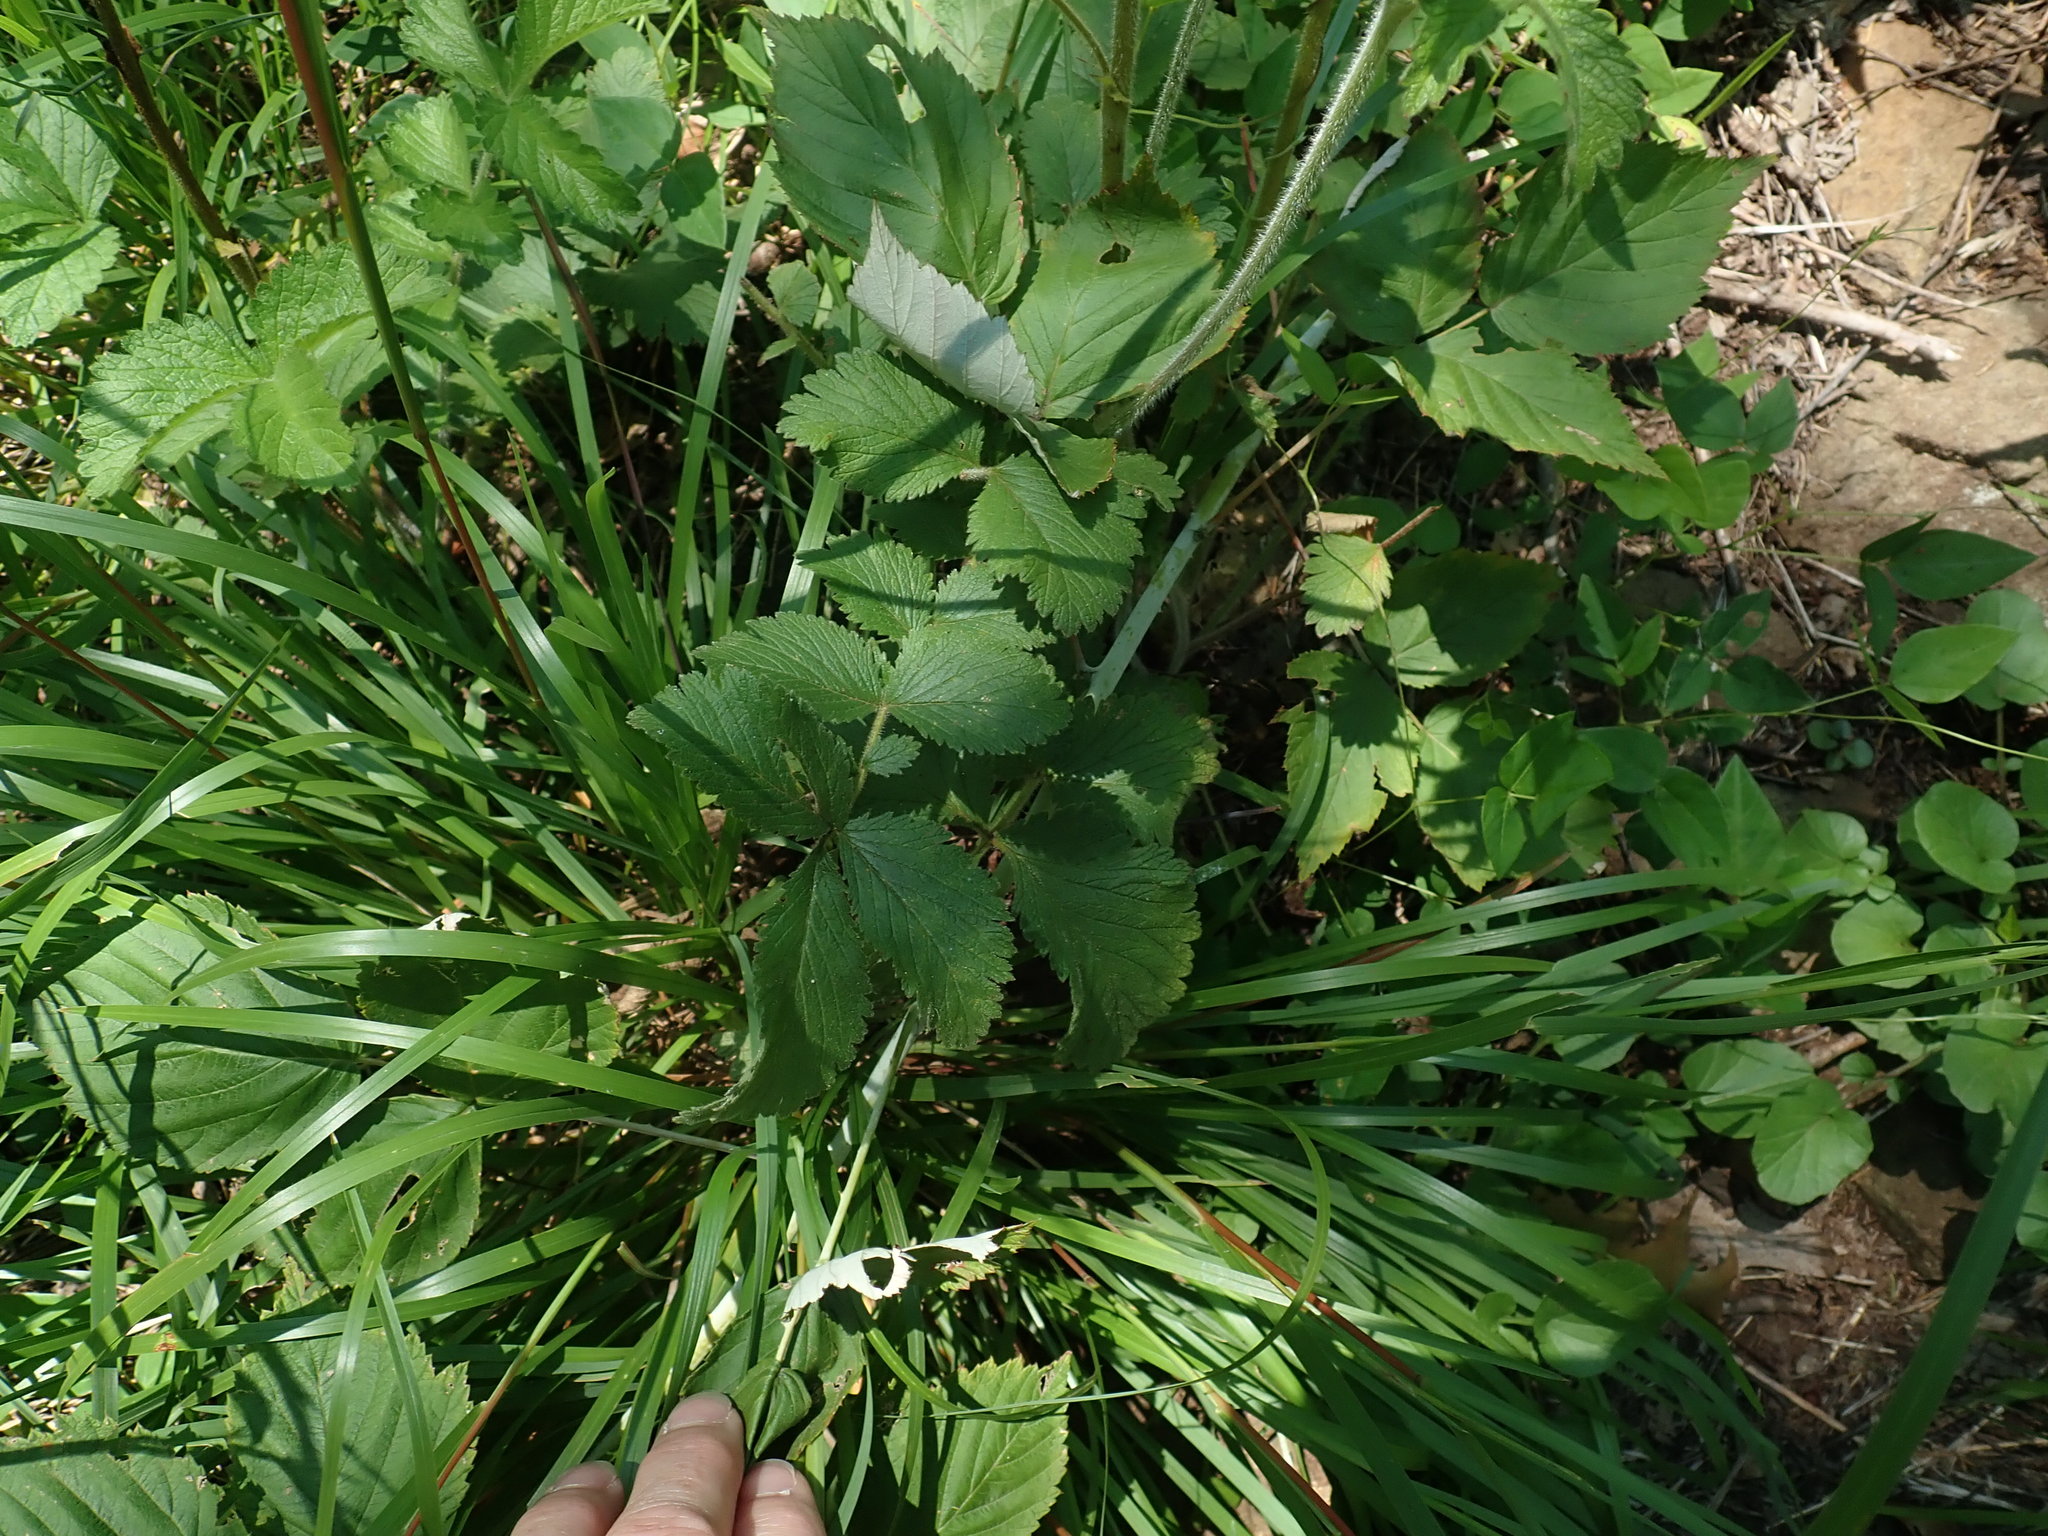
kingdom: Plantae
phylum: Tracheophyta
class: Magnoliopsida
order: Rosales
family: Rosaceae
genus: Drymocallis
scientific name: Drymocallis arguta
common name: Tall cinquefoil
